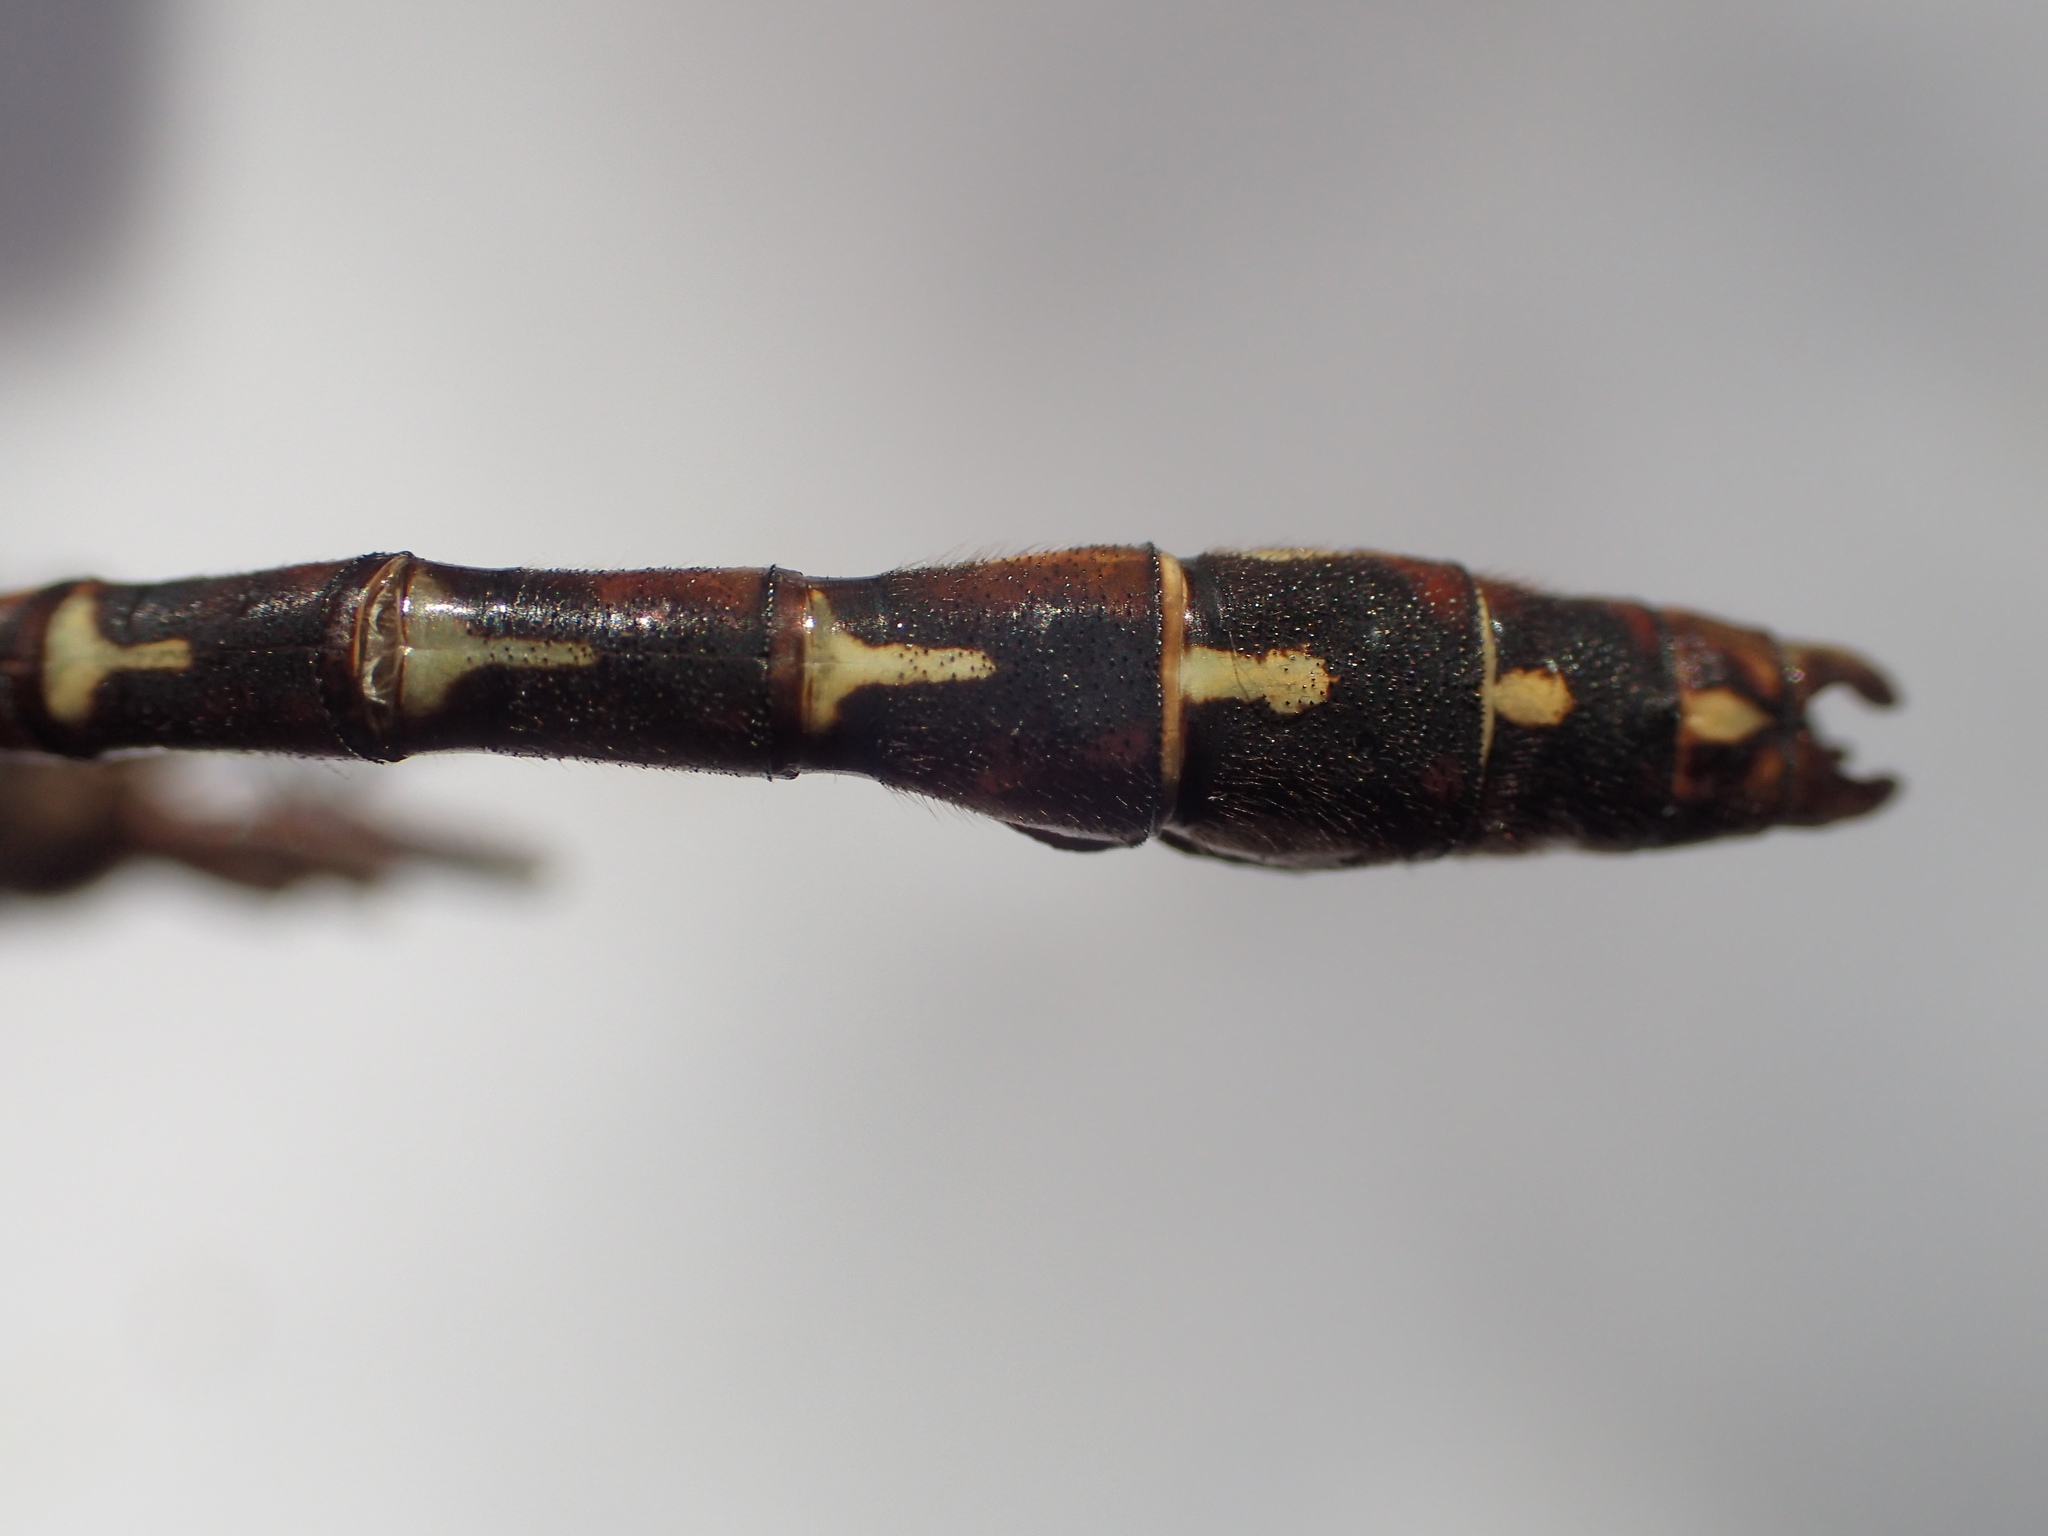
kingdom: Animalia
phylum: Arthropoda
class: Insecta
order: Odonata
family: Gomphidae
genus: Ophiogomphus
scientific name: Ophiogomphus colubrinus
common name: Boreal snaketail
